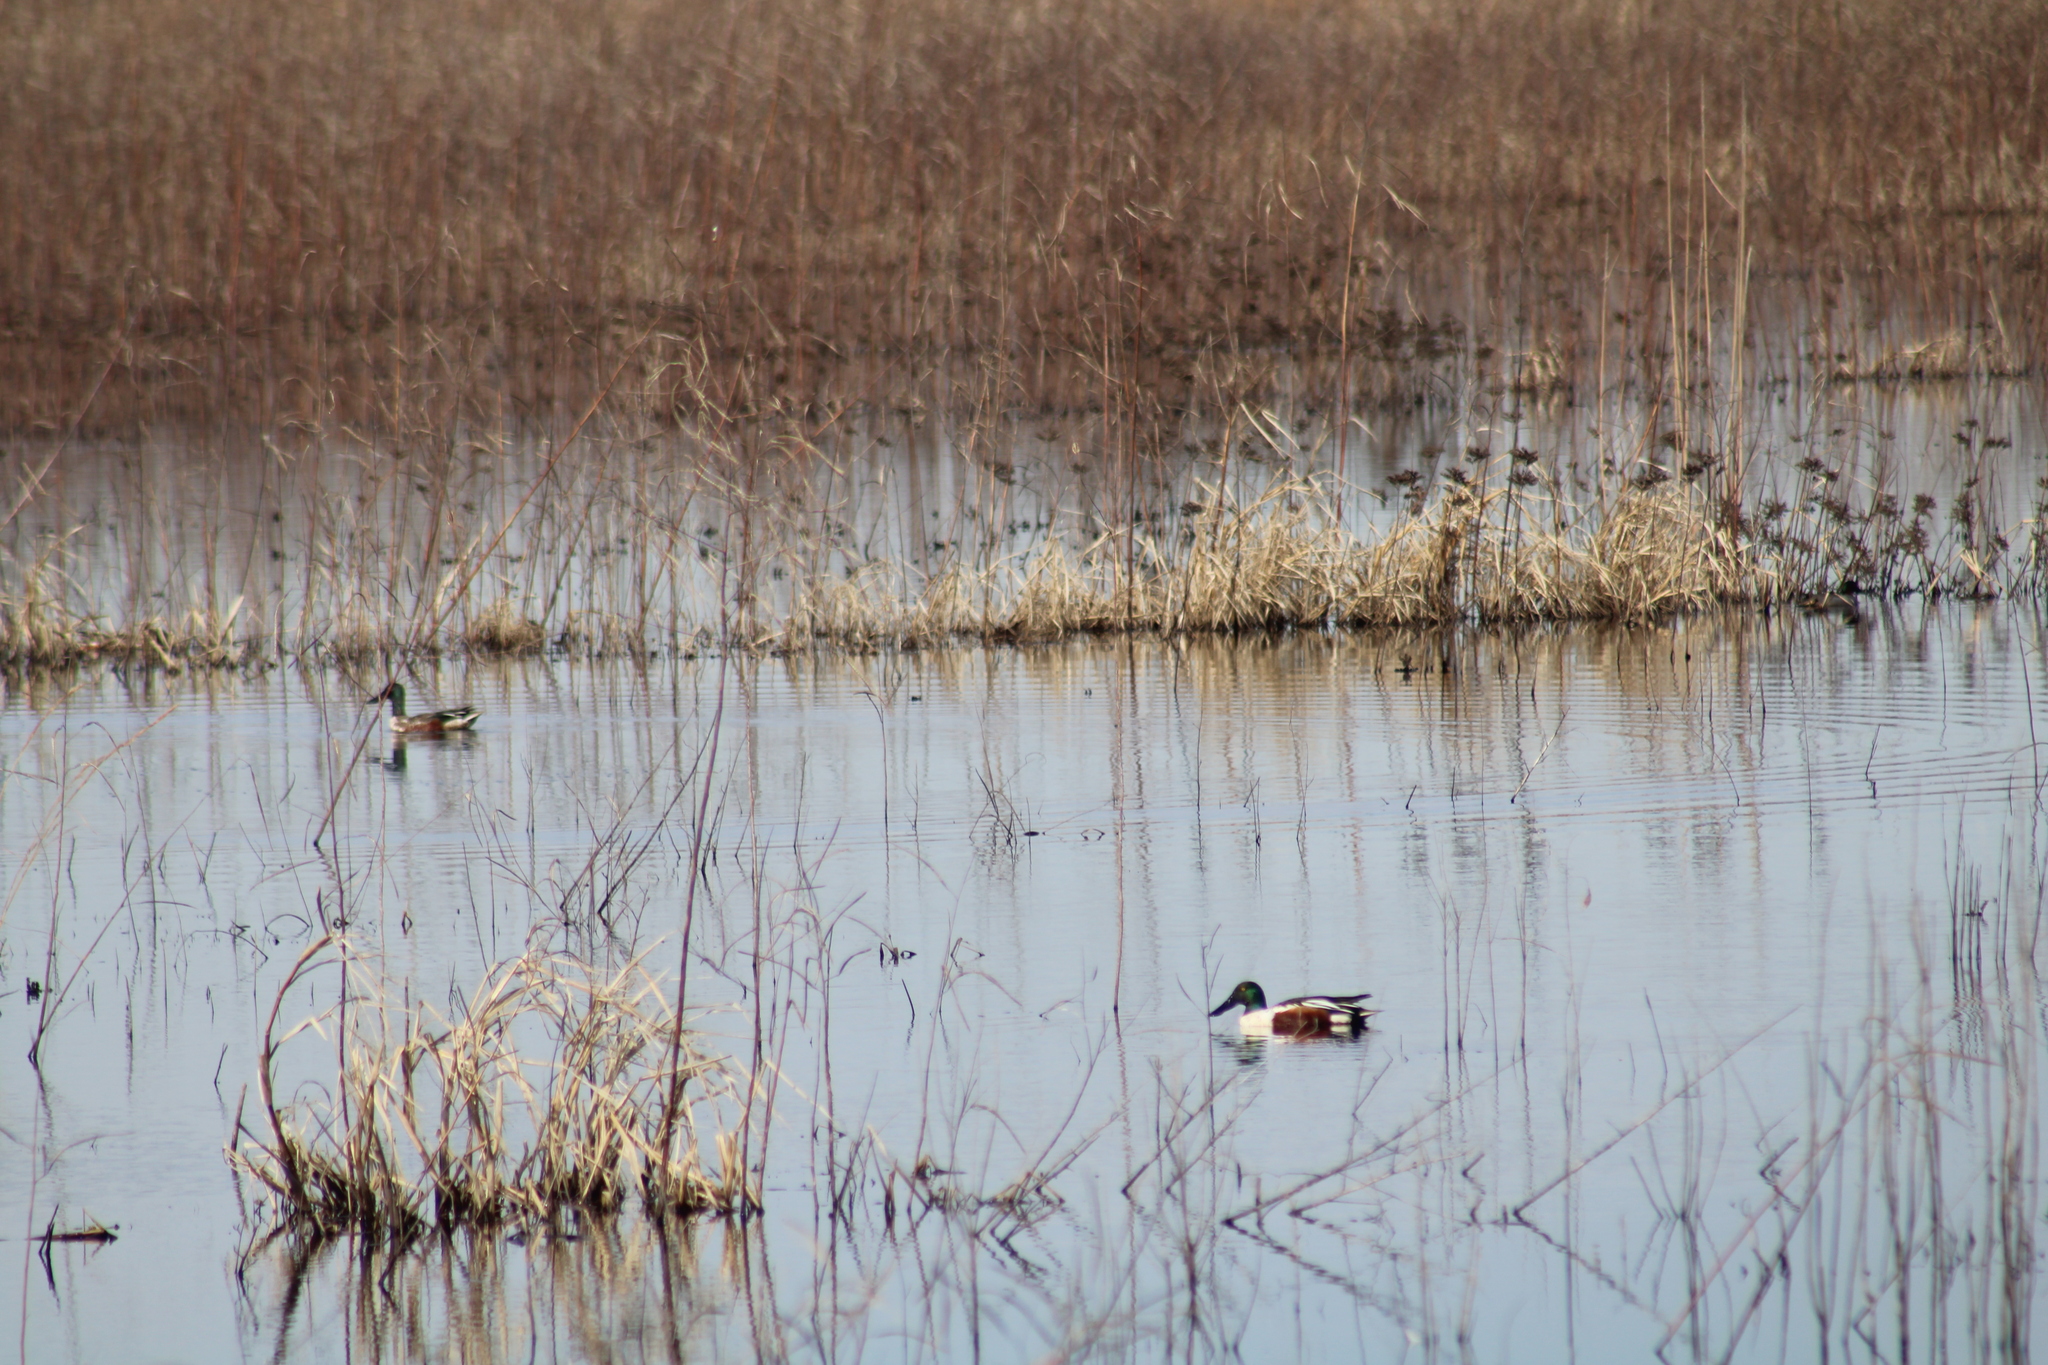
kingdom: Animalia
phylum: Chordata
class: Aves
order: Anseriformes
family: Anatidae
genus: Spatula
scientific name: Spatula clypeata
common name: Northern shoveler
